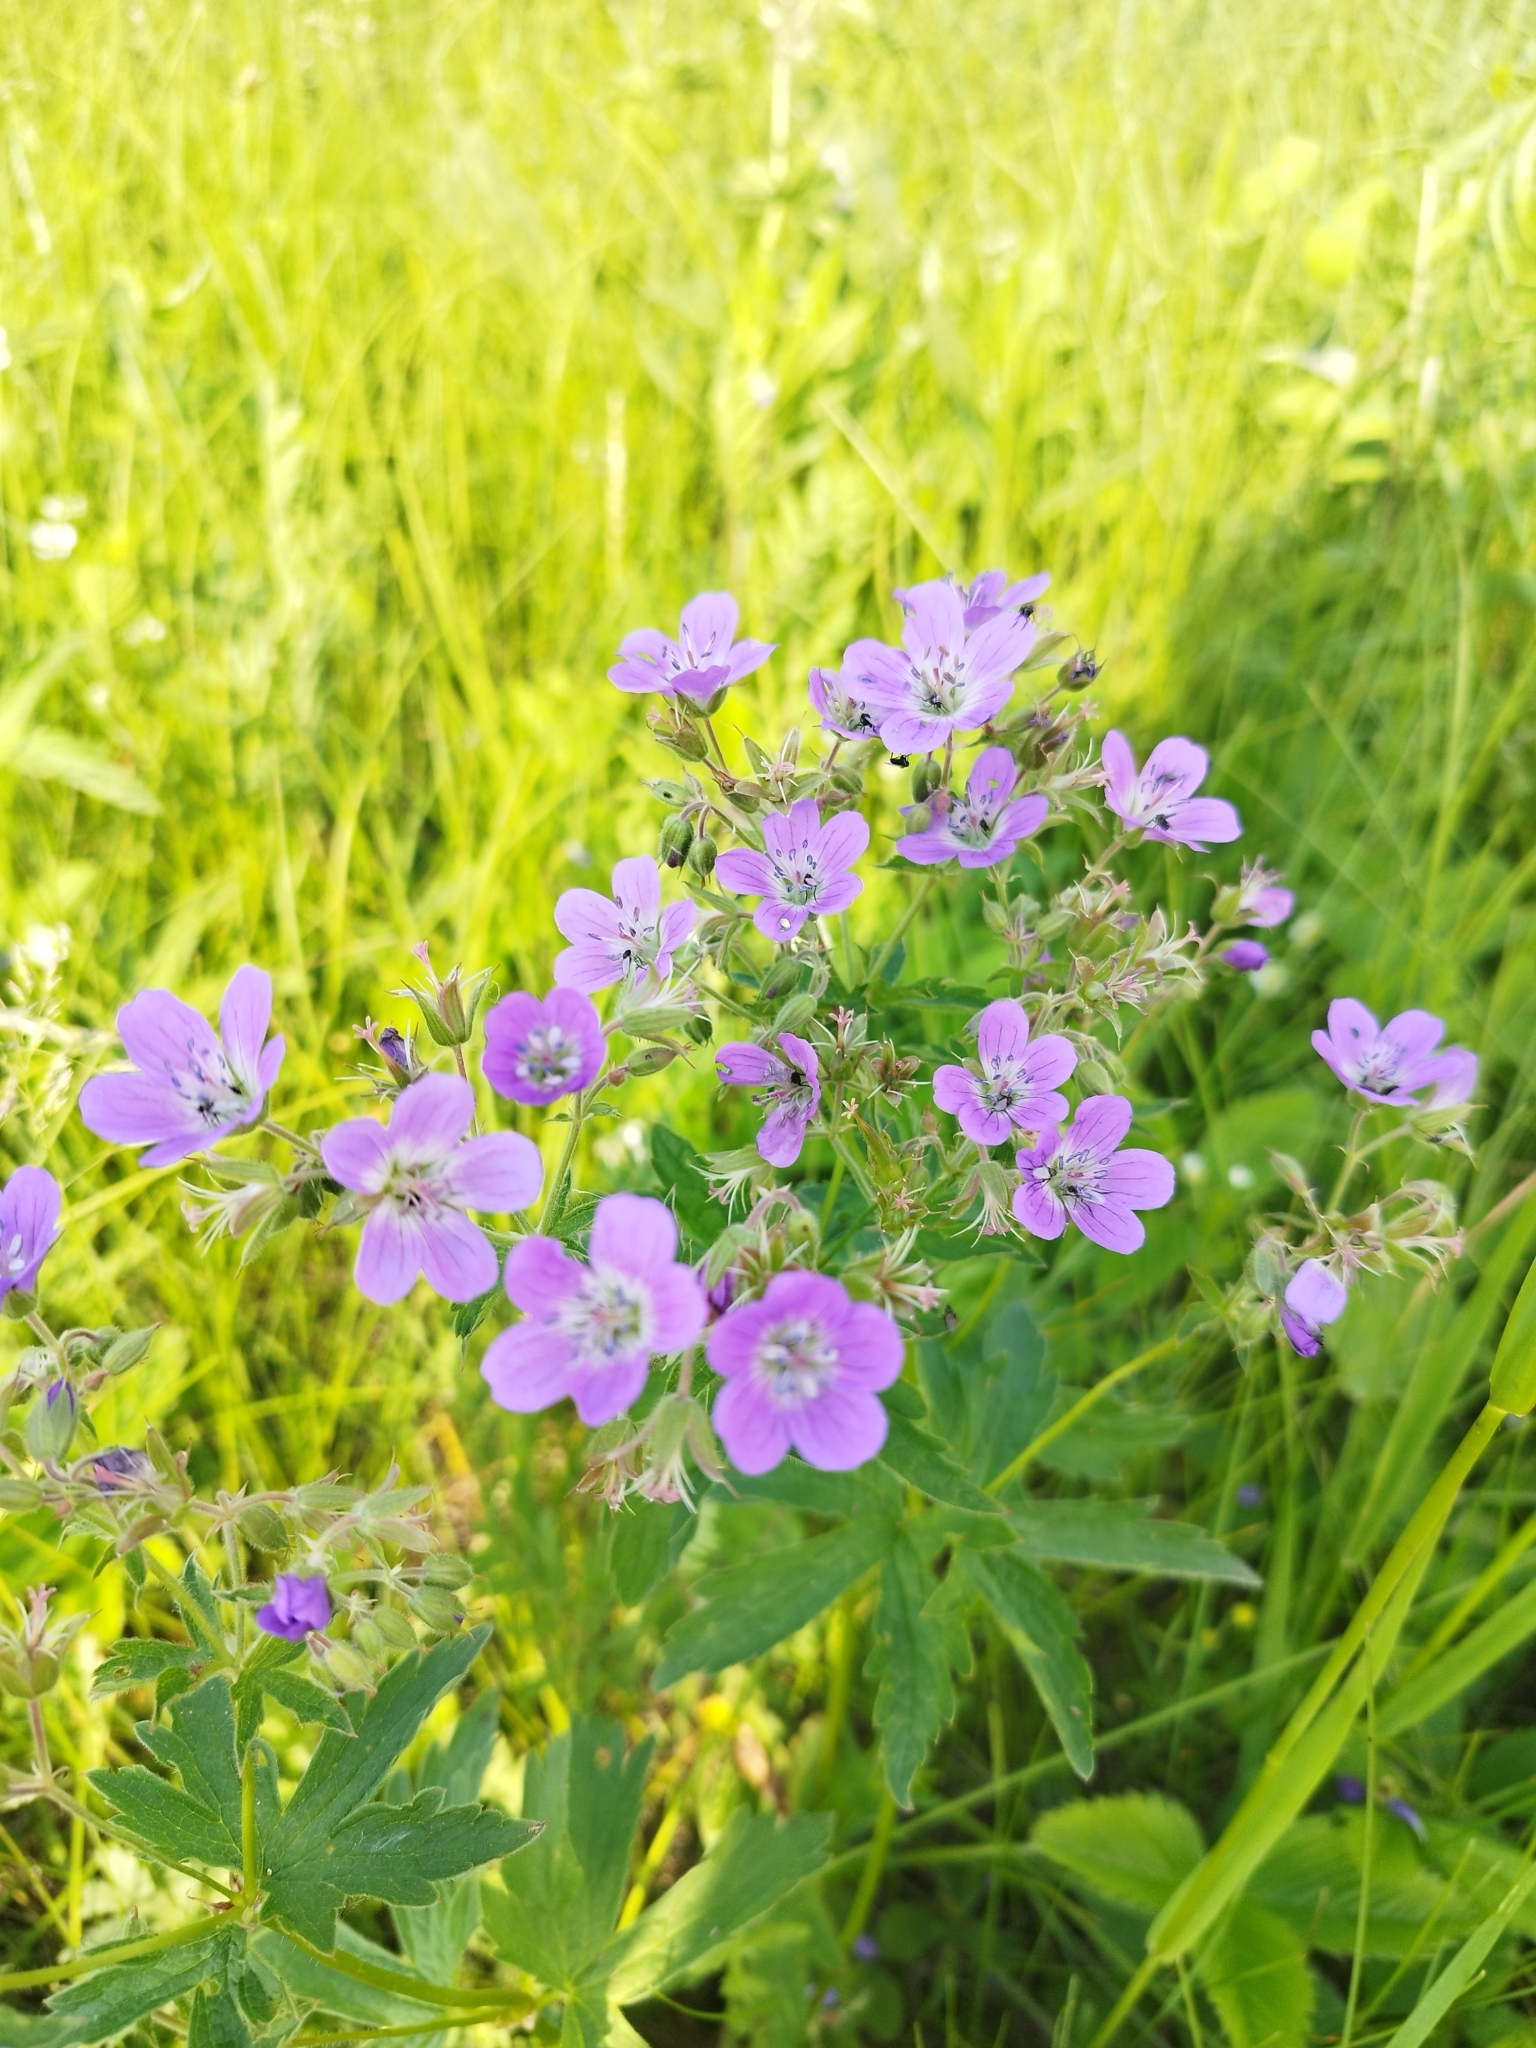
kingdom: Plantae
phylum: Tracheophyta
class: Magnoliopsida
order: Geraniales
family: Geraniaceae
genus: Geranium
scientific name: Geranium sylvaticum
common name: Wood crane's-bill
